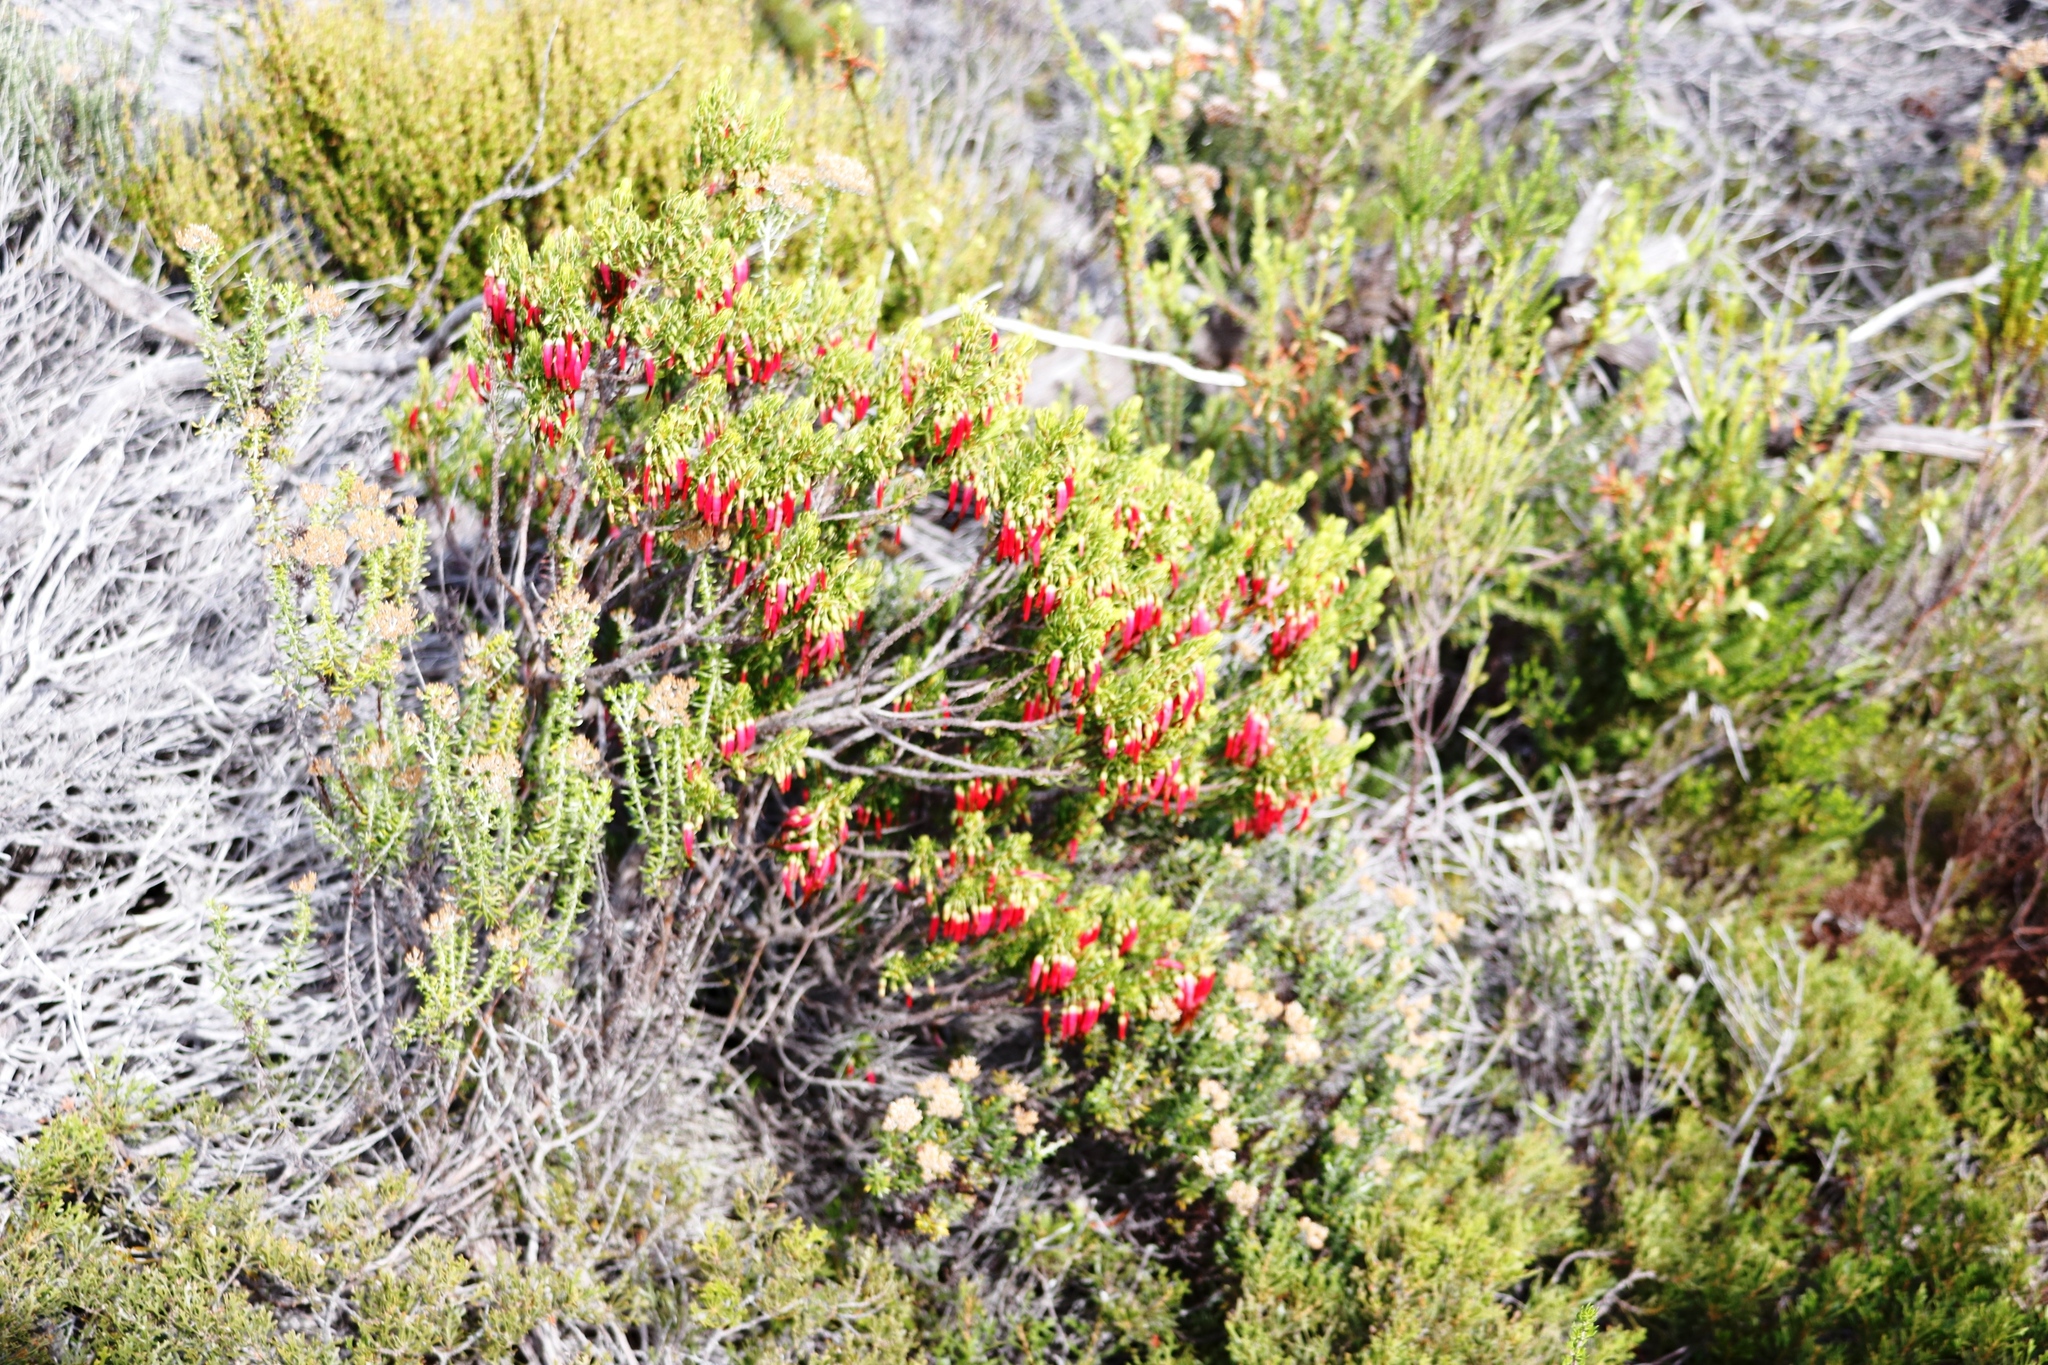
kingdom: Plantae
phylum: Tracheophyta
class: Magnoliopsida
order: Ericales
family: Ericaceae
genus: Erica
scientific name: Erica plukenetii
